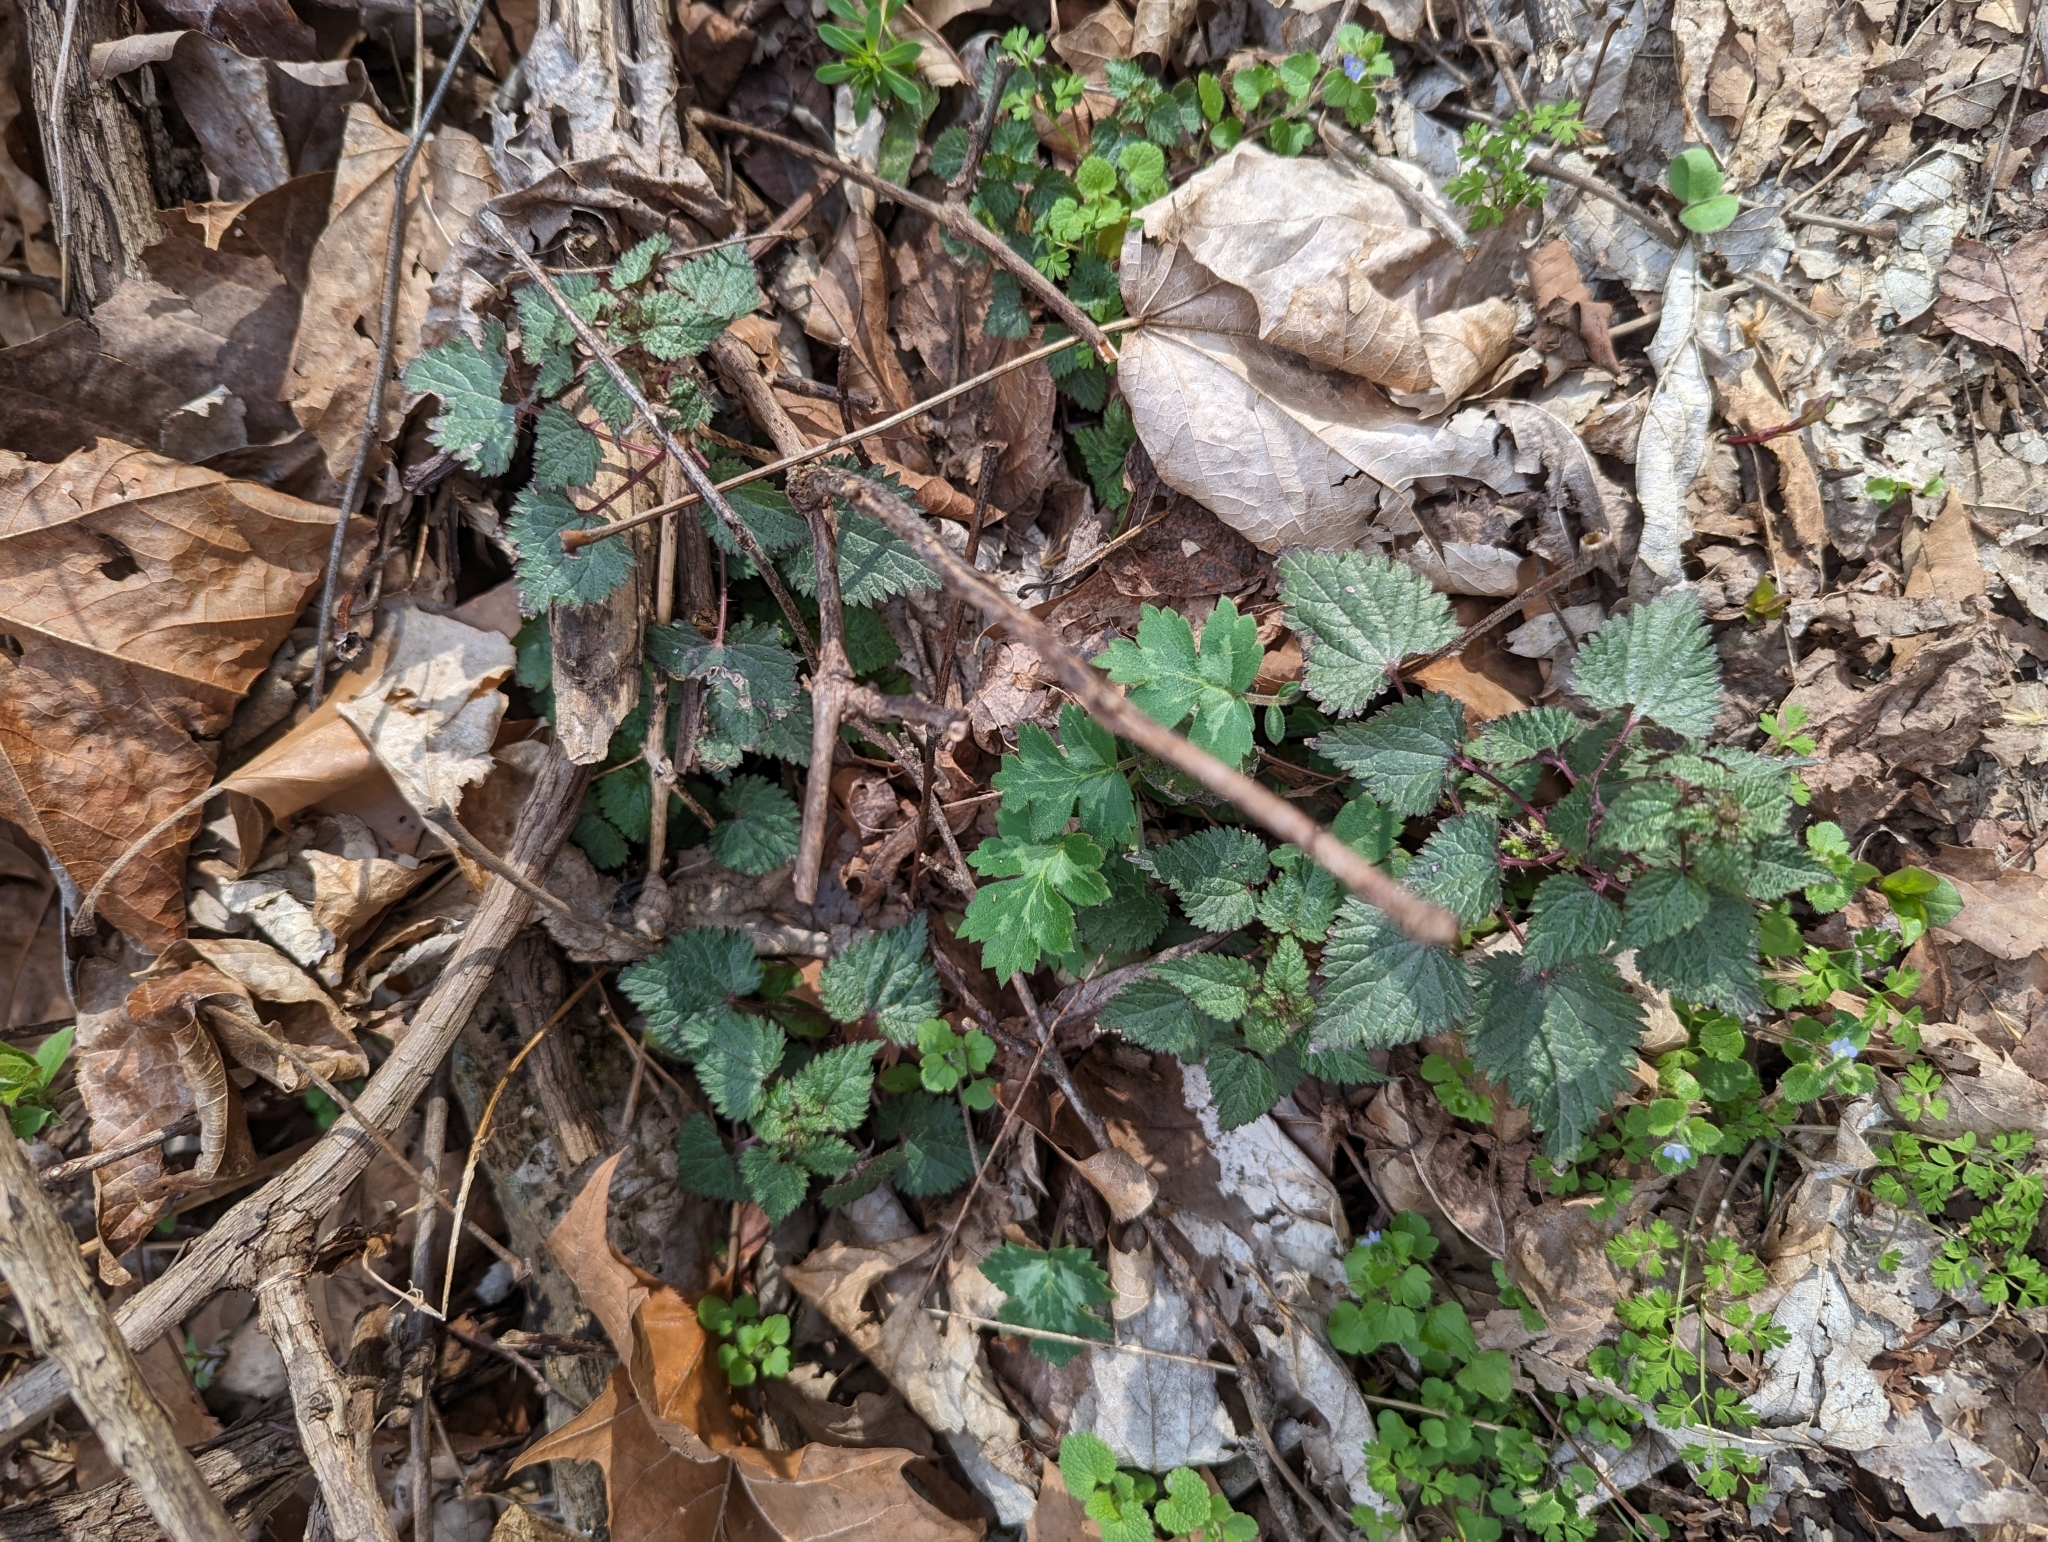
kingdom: Plantae
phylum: Tracheophyta
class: Magnoliopsida
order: Rosales
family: Urticaceae
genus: Urtica
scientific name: Urtica chamaedryoides
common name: Heart-leaf nettle
